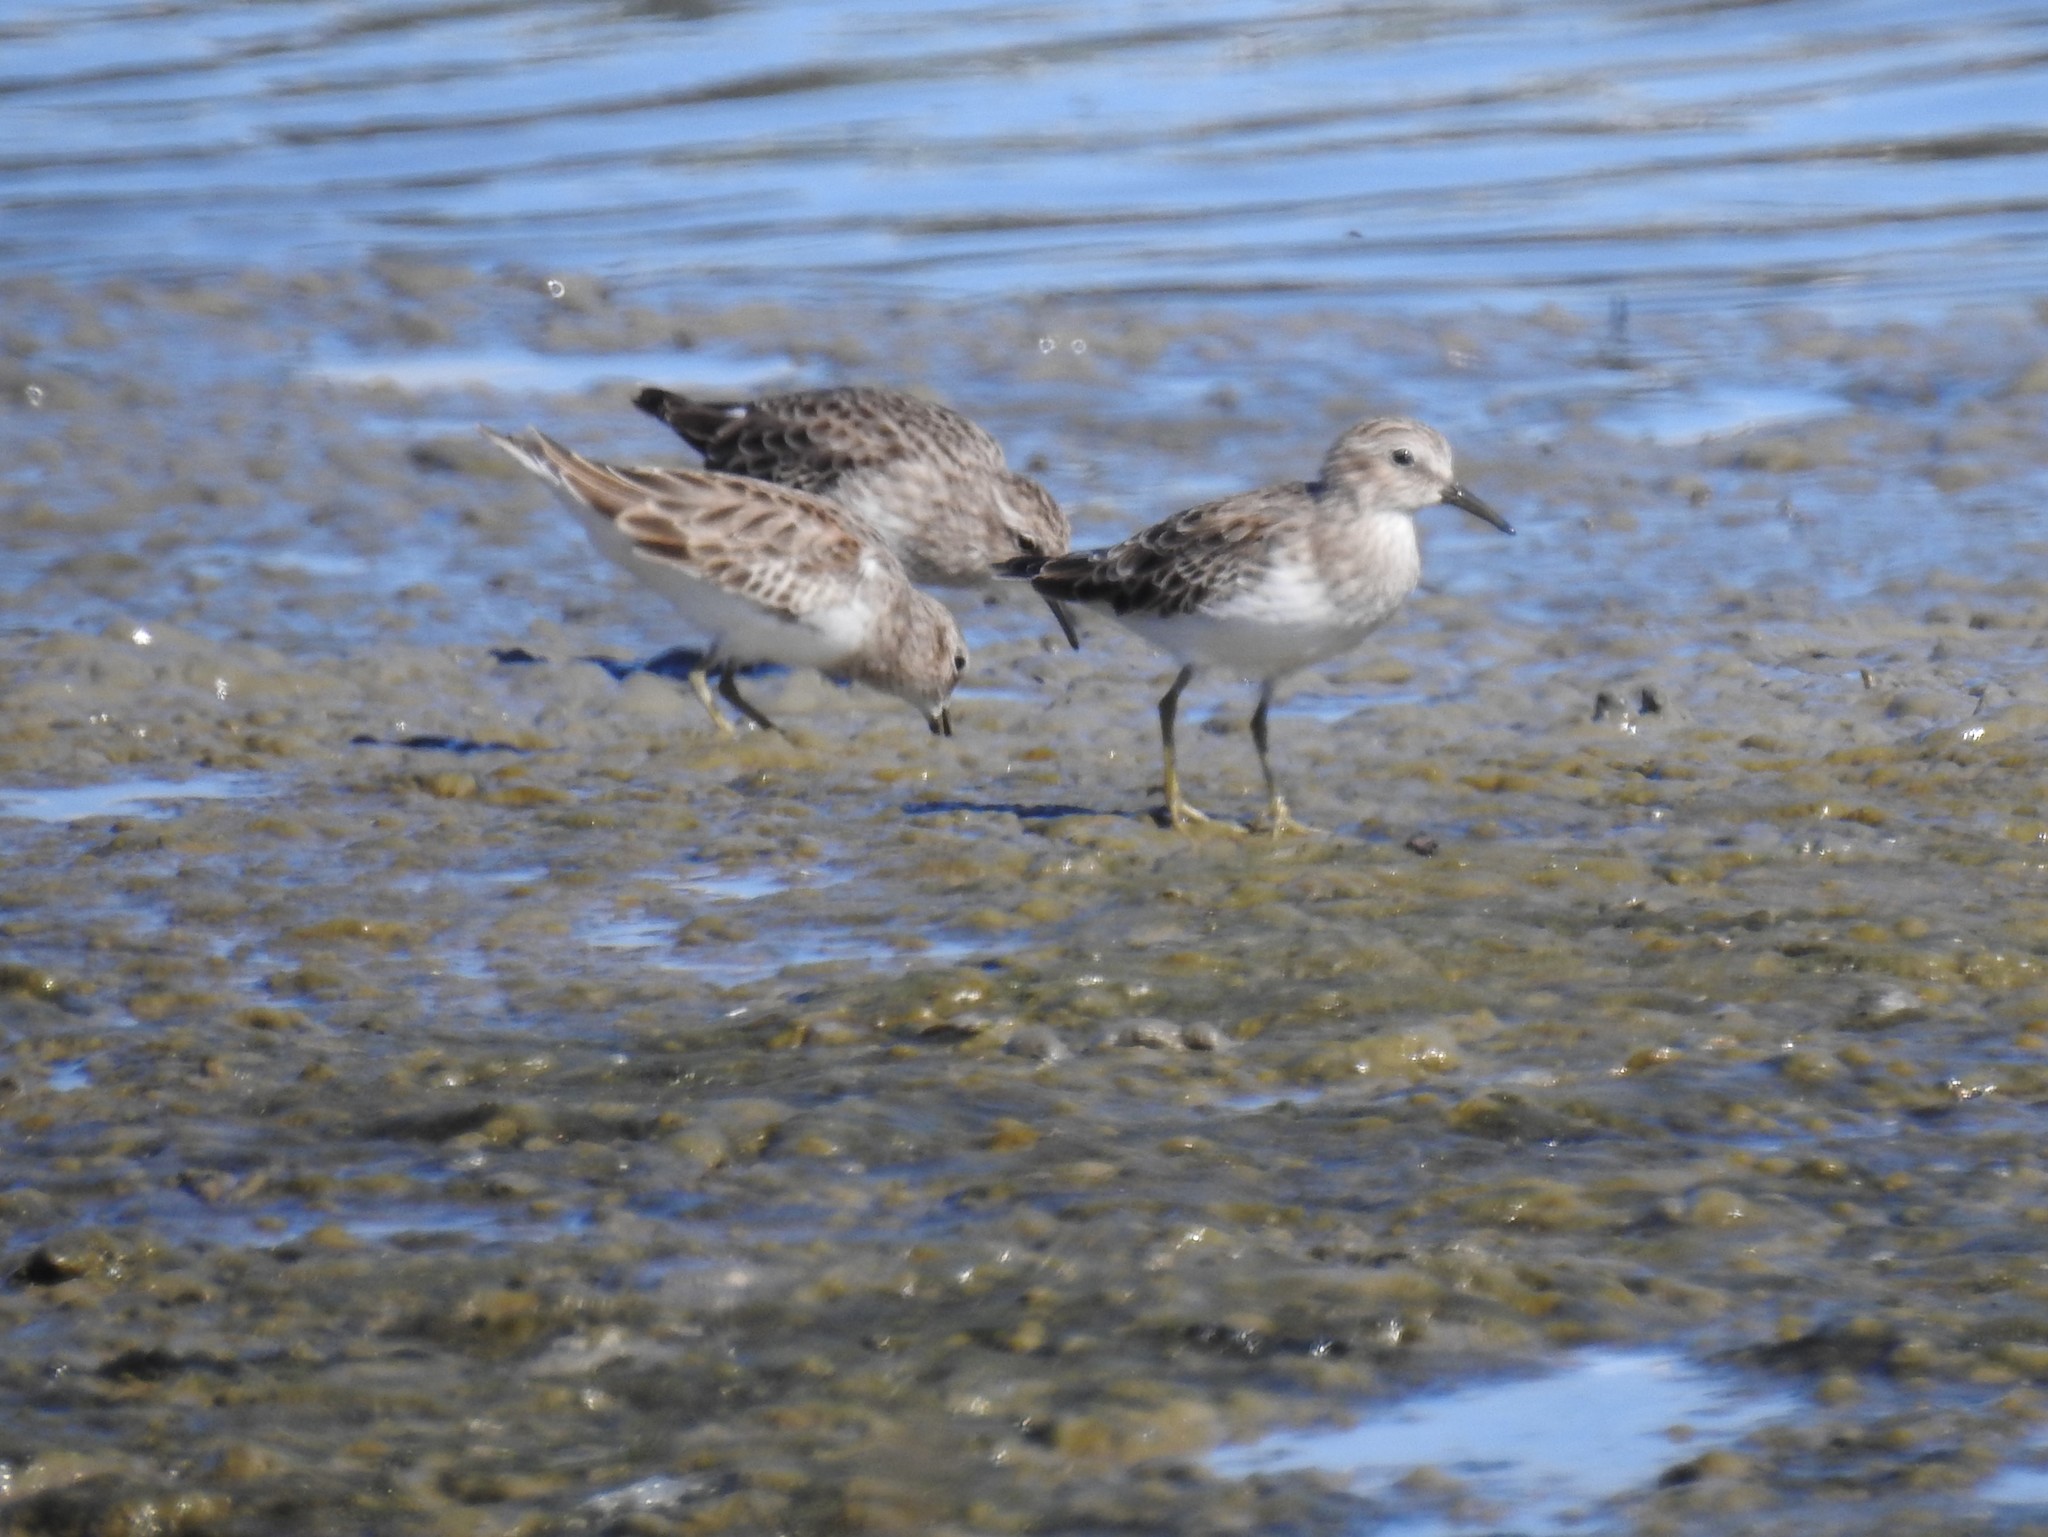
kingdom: Animalia
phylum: Chordata
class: Aves
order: Charadriiformes
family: Scolopacidae
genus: Calidris
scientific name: Calidris minutilla
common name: Least sandpiper
